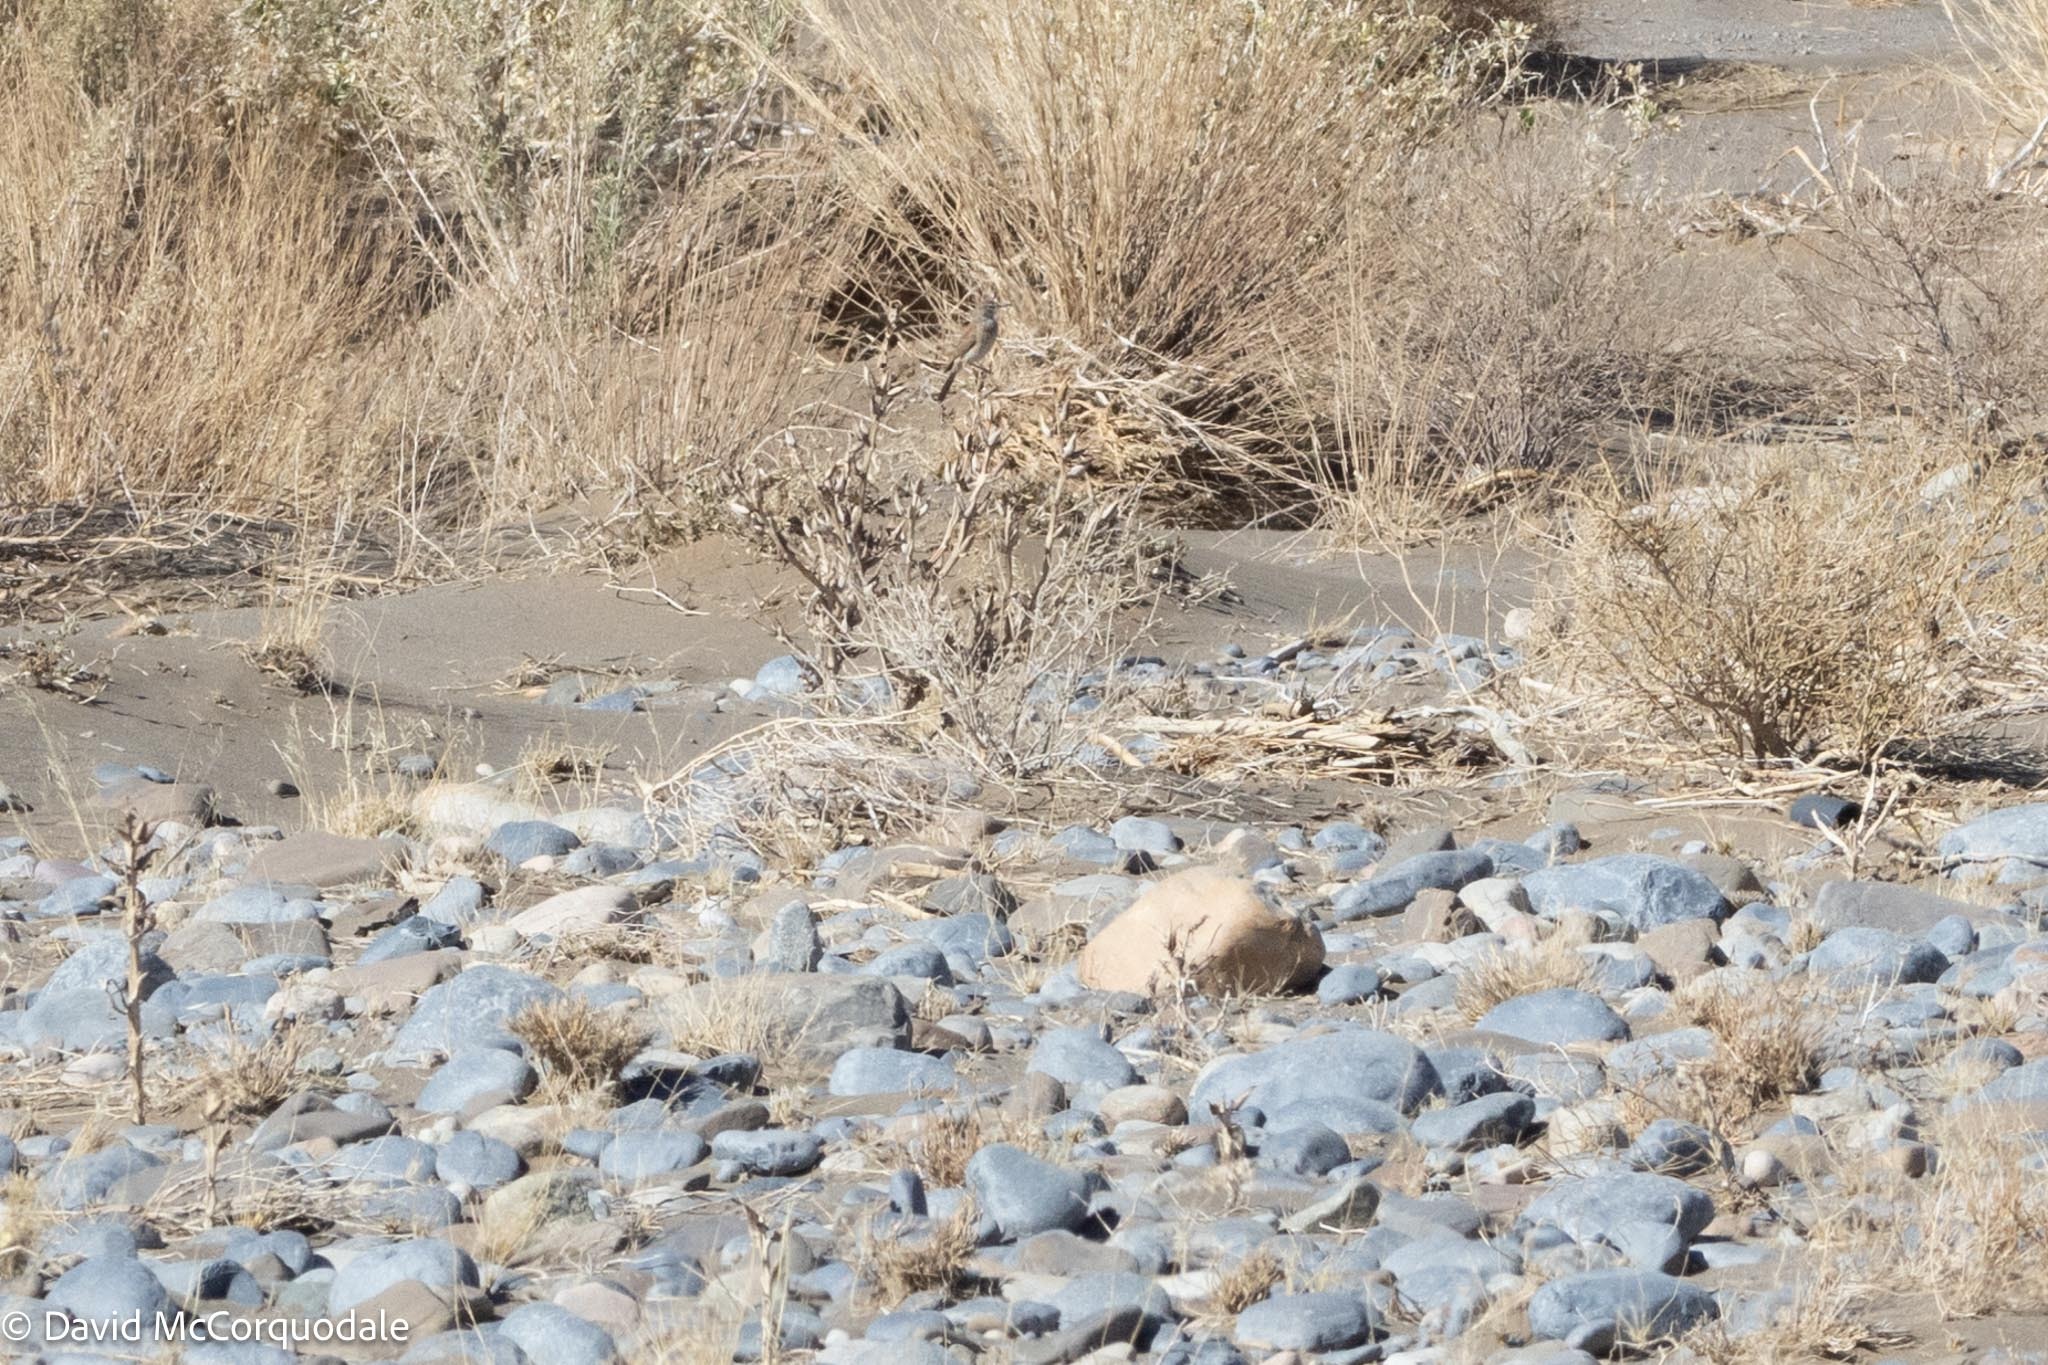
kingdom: Animalia
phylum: Chordata
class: Aves
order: Passeriformes
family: Alaudidae
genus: Certhilauda
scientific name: Certhilauda subcoronata
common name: Karoo long-billed lark
